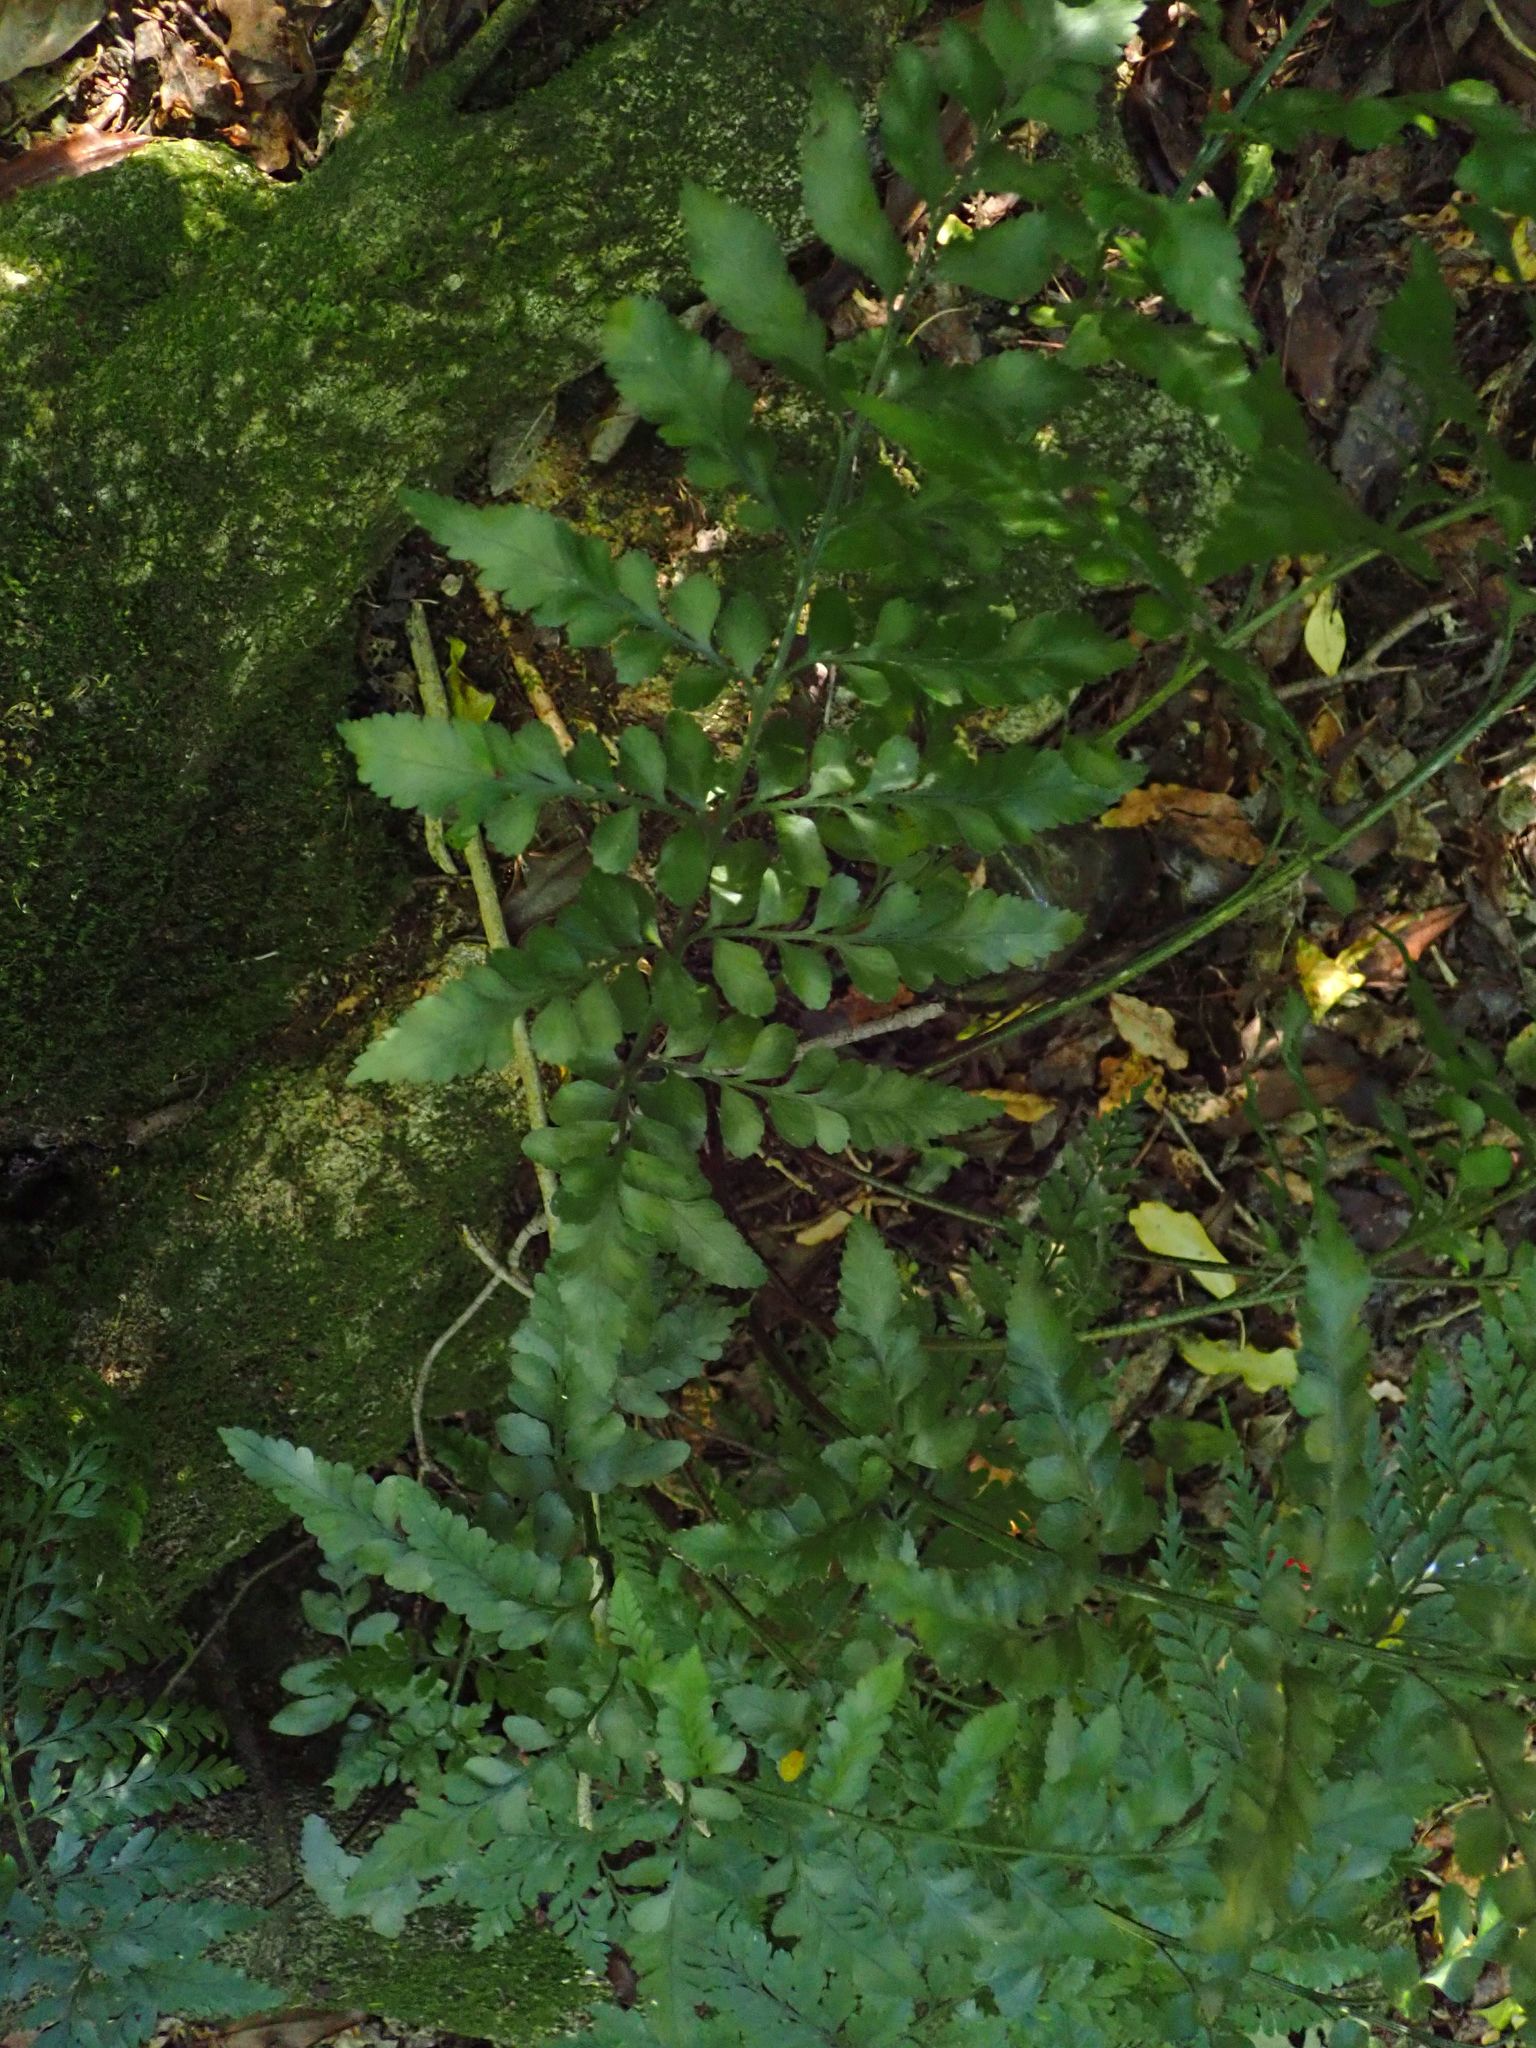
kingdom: Plantae
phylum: Tracheophyta
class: Polypodiopsida
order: Polypodiales
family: Aspleniaceae
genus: Asplenium
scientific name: Asplenium lyallii
